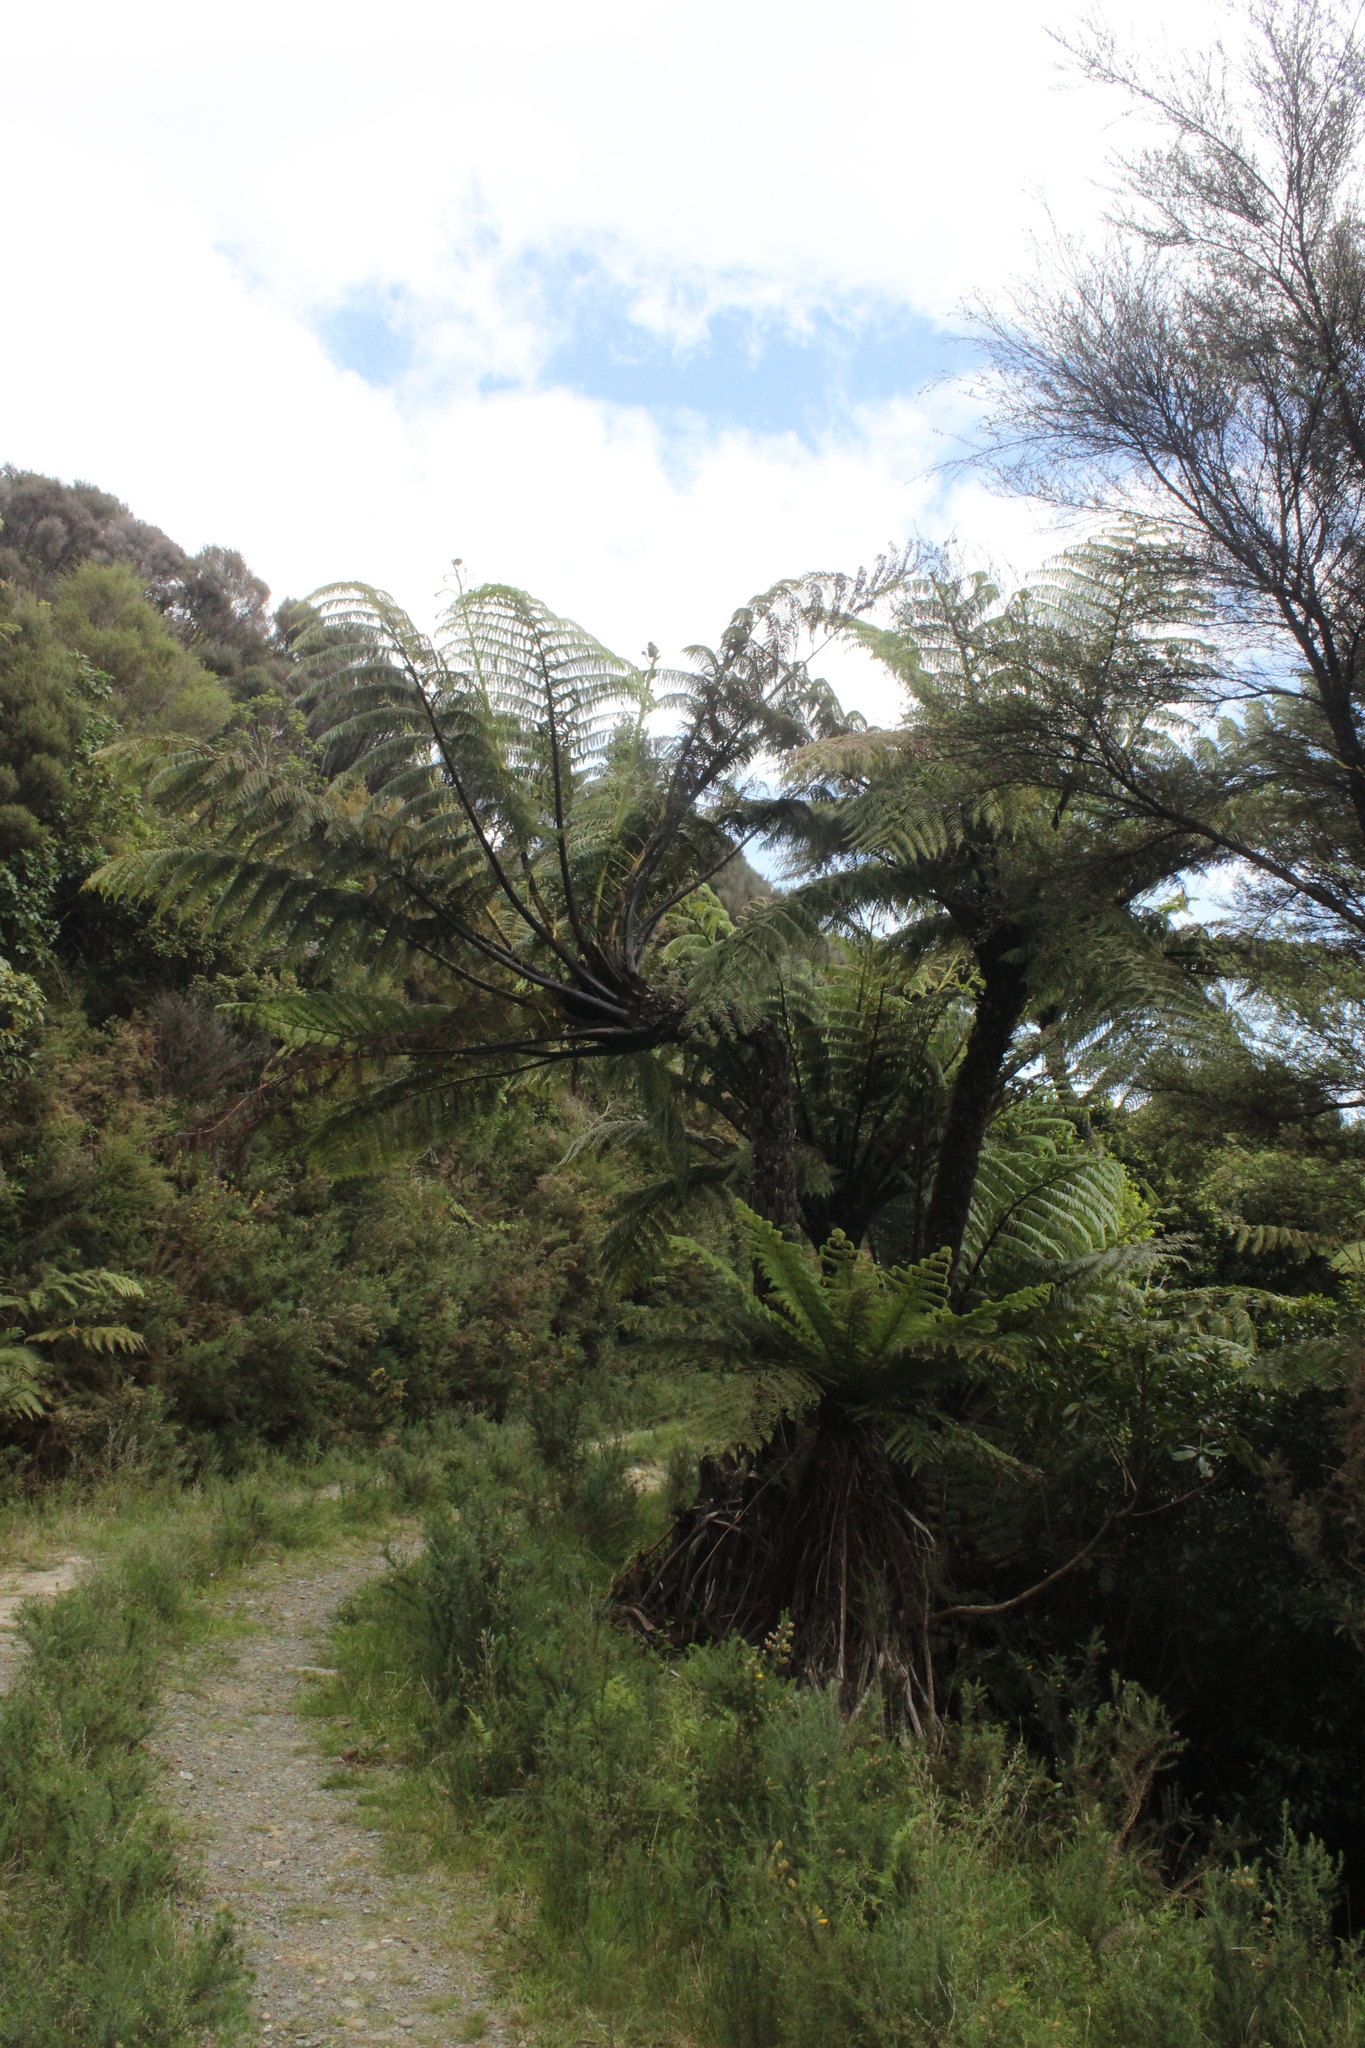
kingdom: Plantae
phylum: Tracheophyta
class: Polypodiopsida
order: Cyatheales
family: Cyatheaceae
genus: Sphaeropteris
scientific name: Sphaeropteris medullaris
